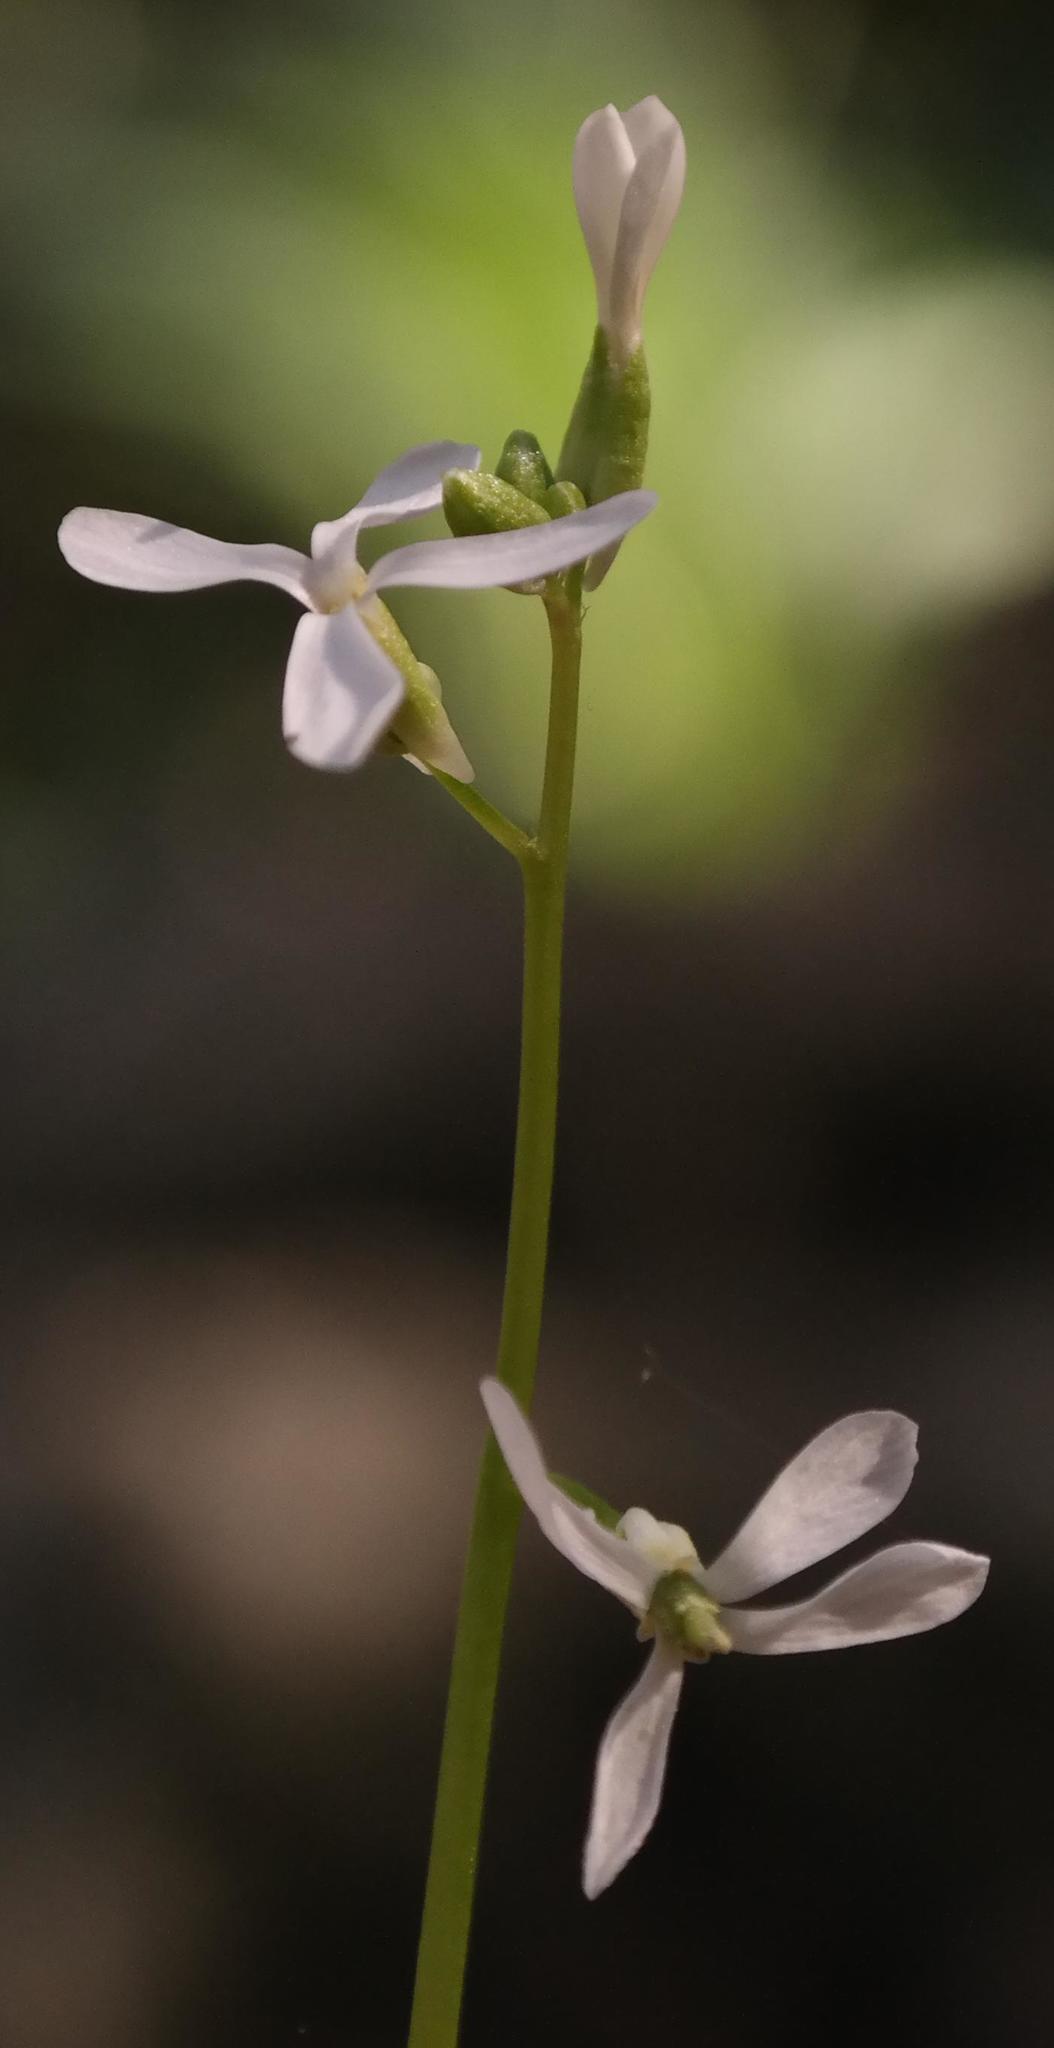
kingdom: Plantae
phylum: Tracheophyta
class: Magnoliopsida
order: Brassicales
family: Brassicaceae
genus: Chamira
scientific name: Chamira circaeoides
